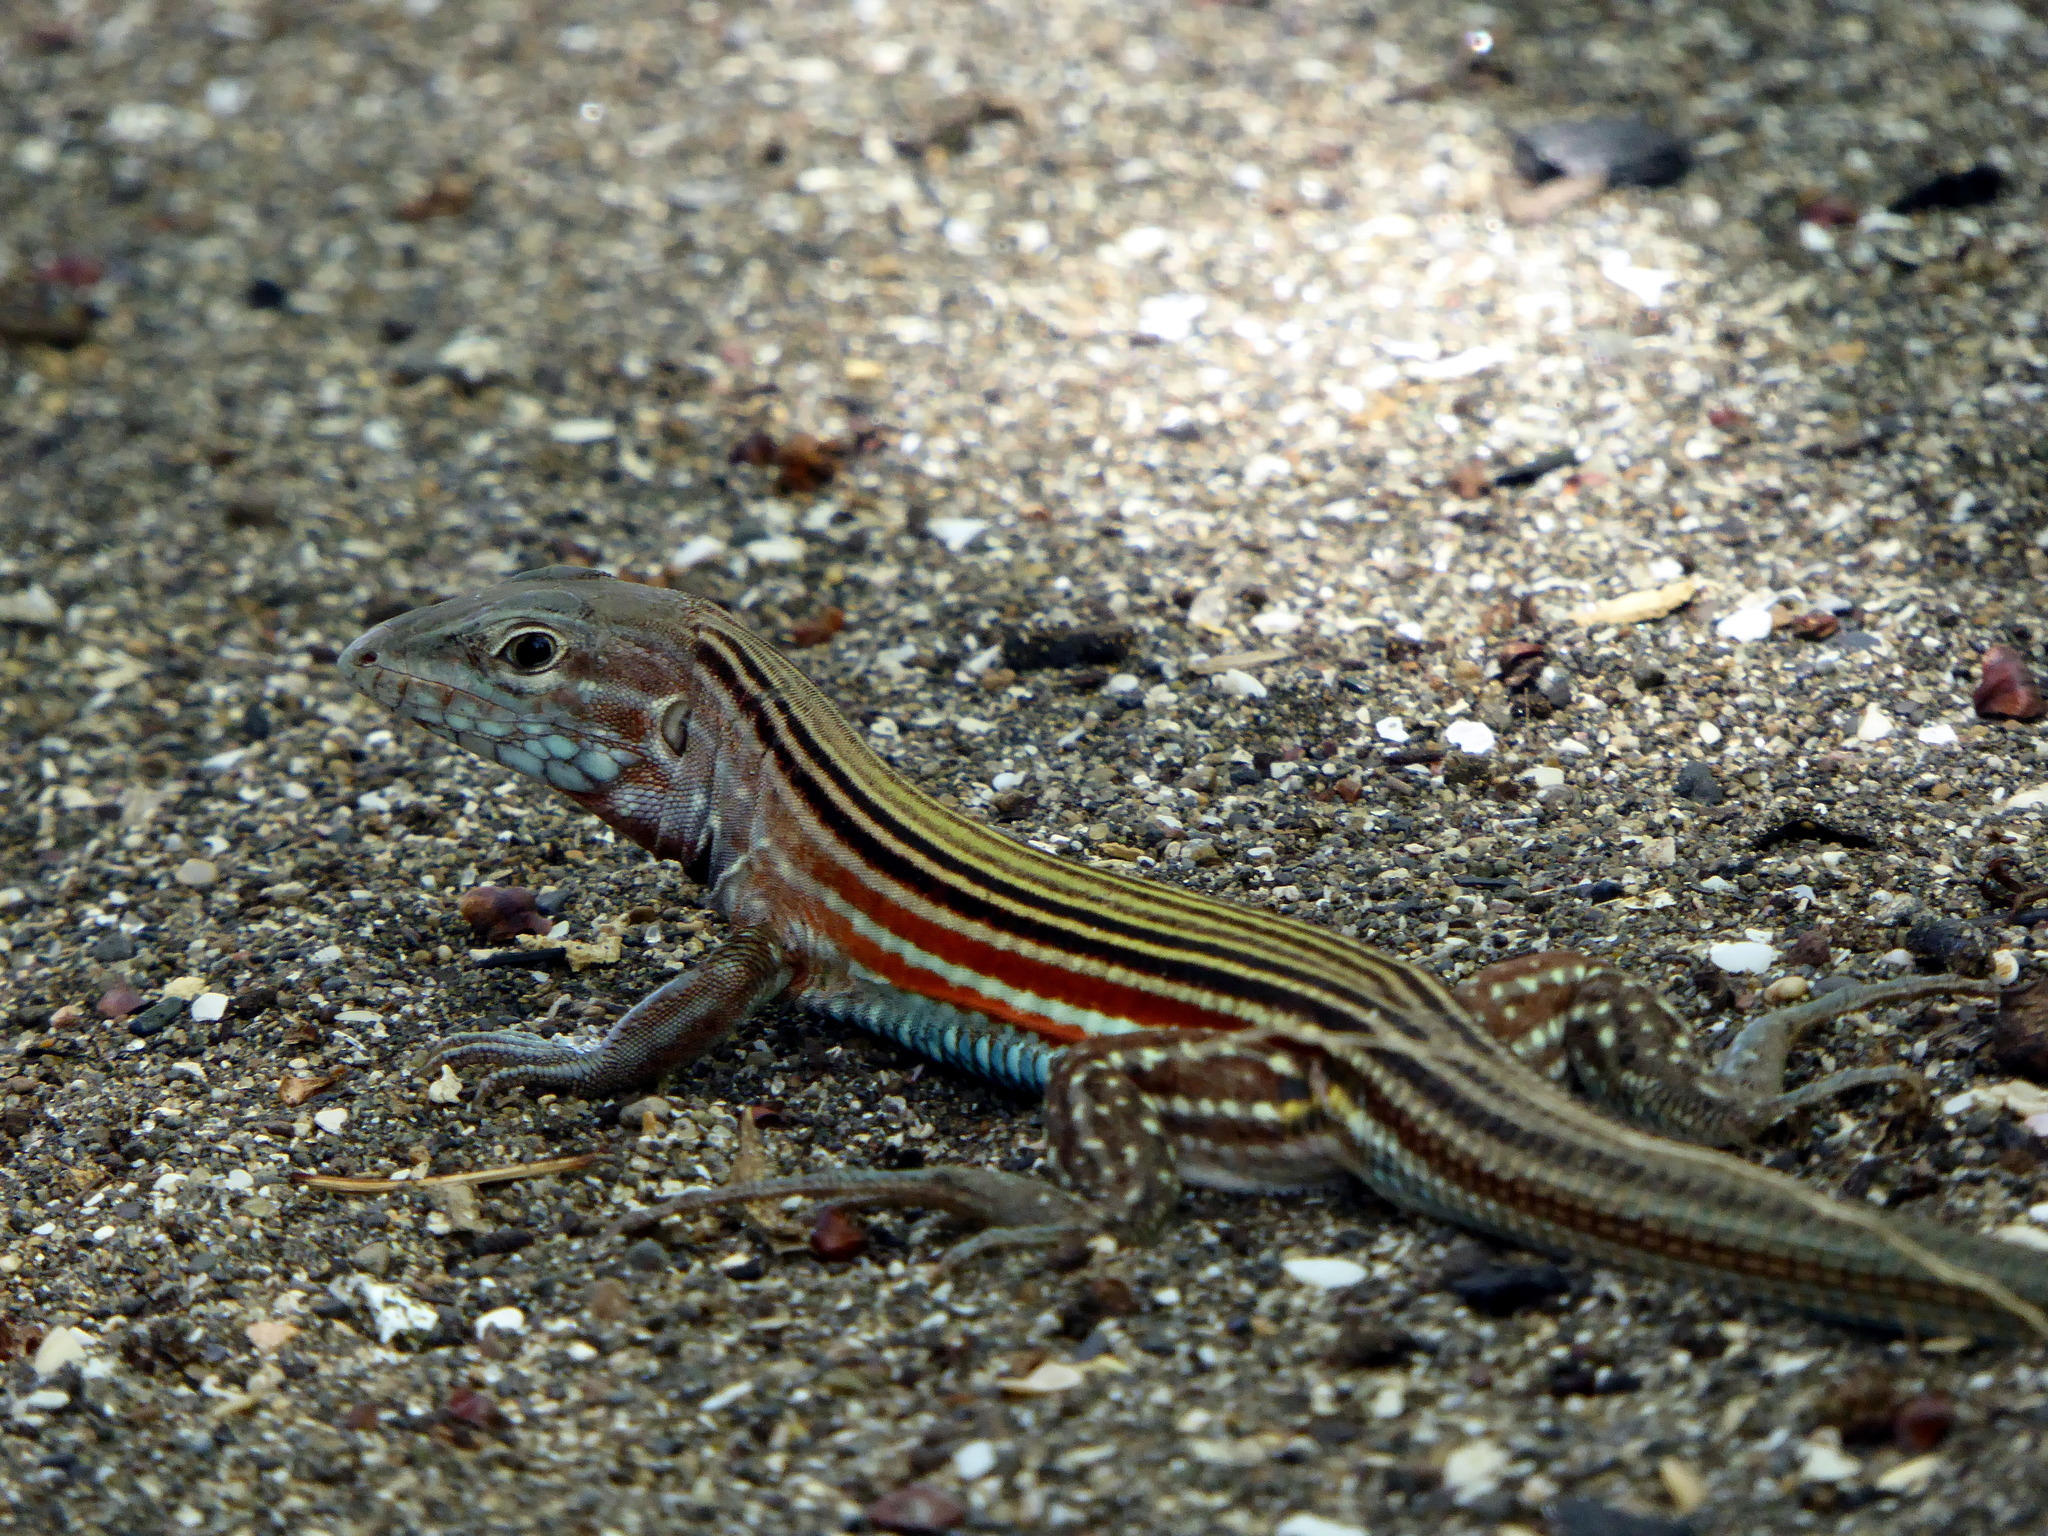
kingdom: Animalia
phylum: Chordata
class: Squamata
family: Teiidae
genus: Aspidoscelis
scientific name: Aspidoscelis deppii
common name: Blackbelly racerunner
